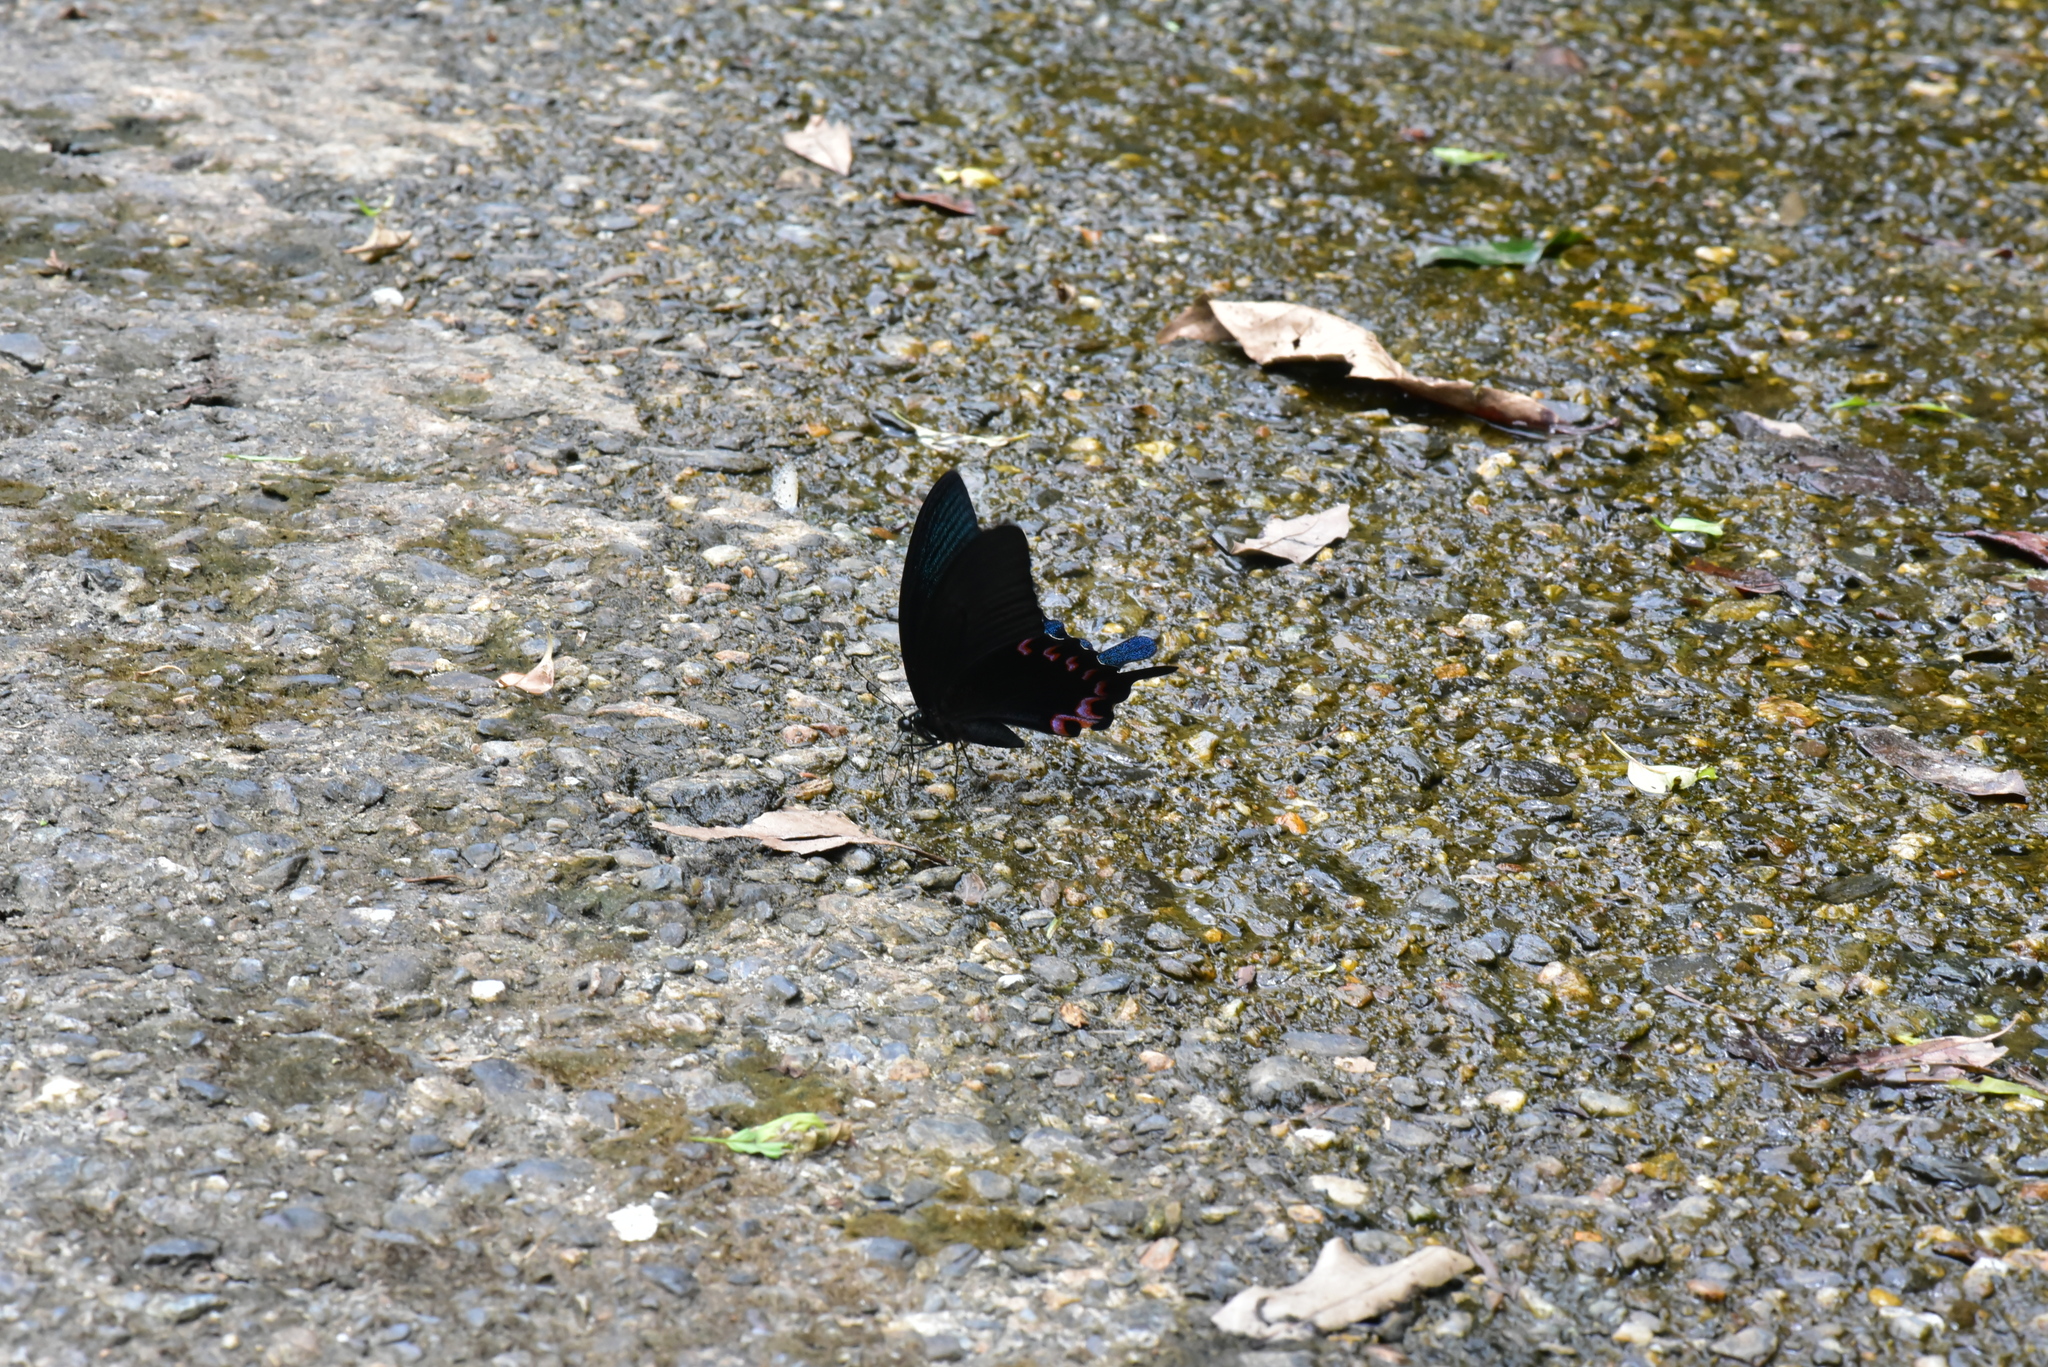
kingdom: Animalia
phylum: Arthropoda
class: Insecta
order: Lepidoptera
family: Papilionidae
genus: Papilio
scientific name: Papilio bianor
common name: Common peacock
